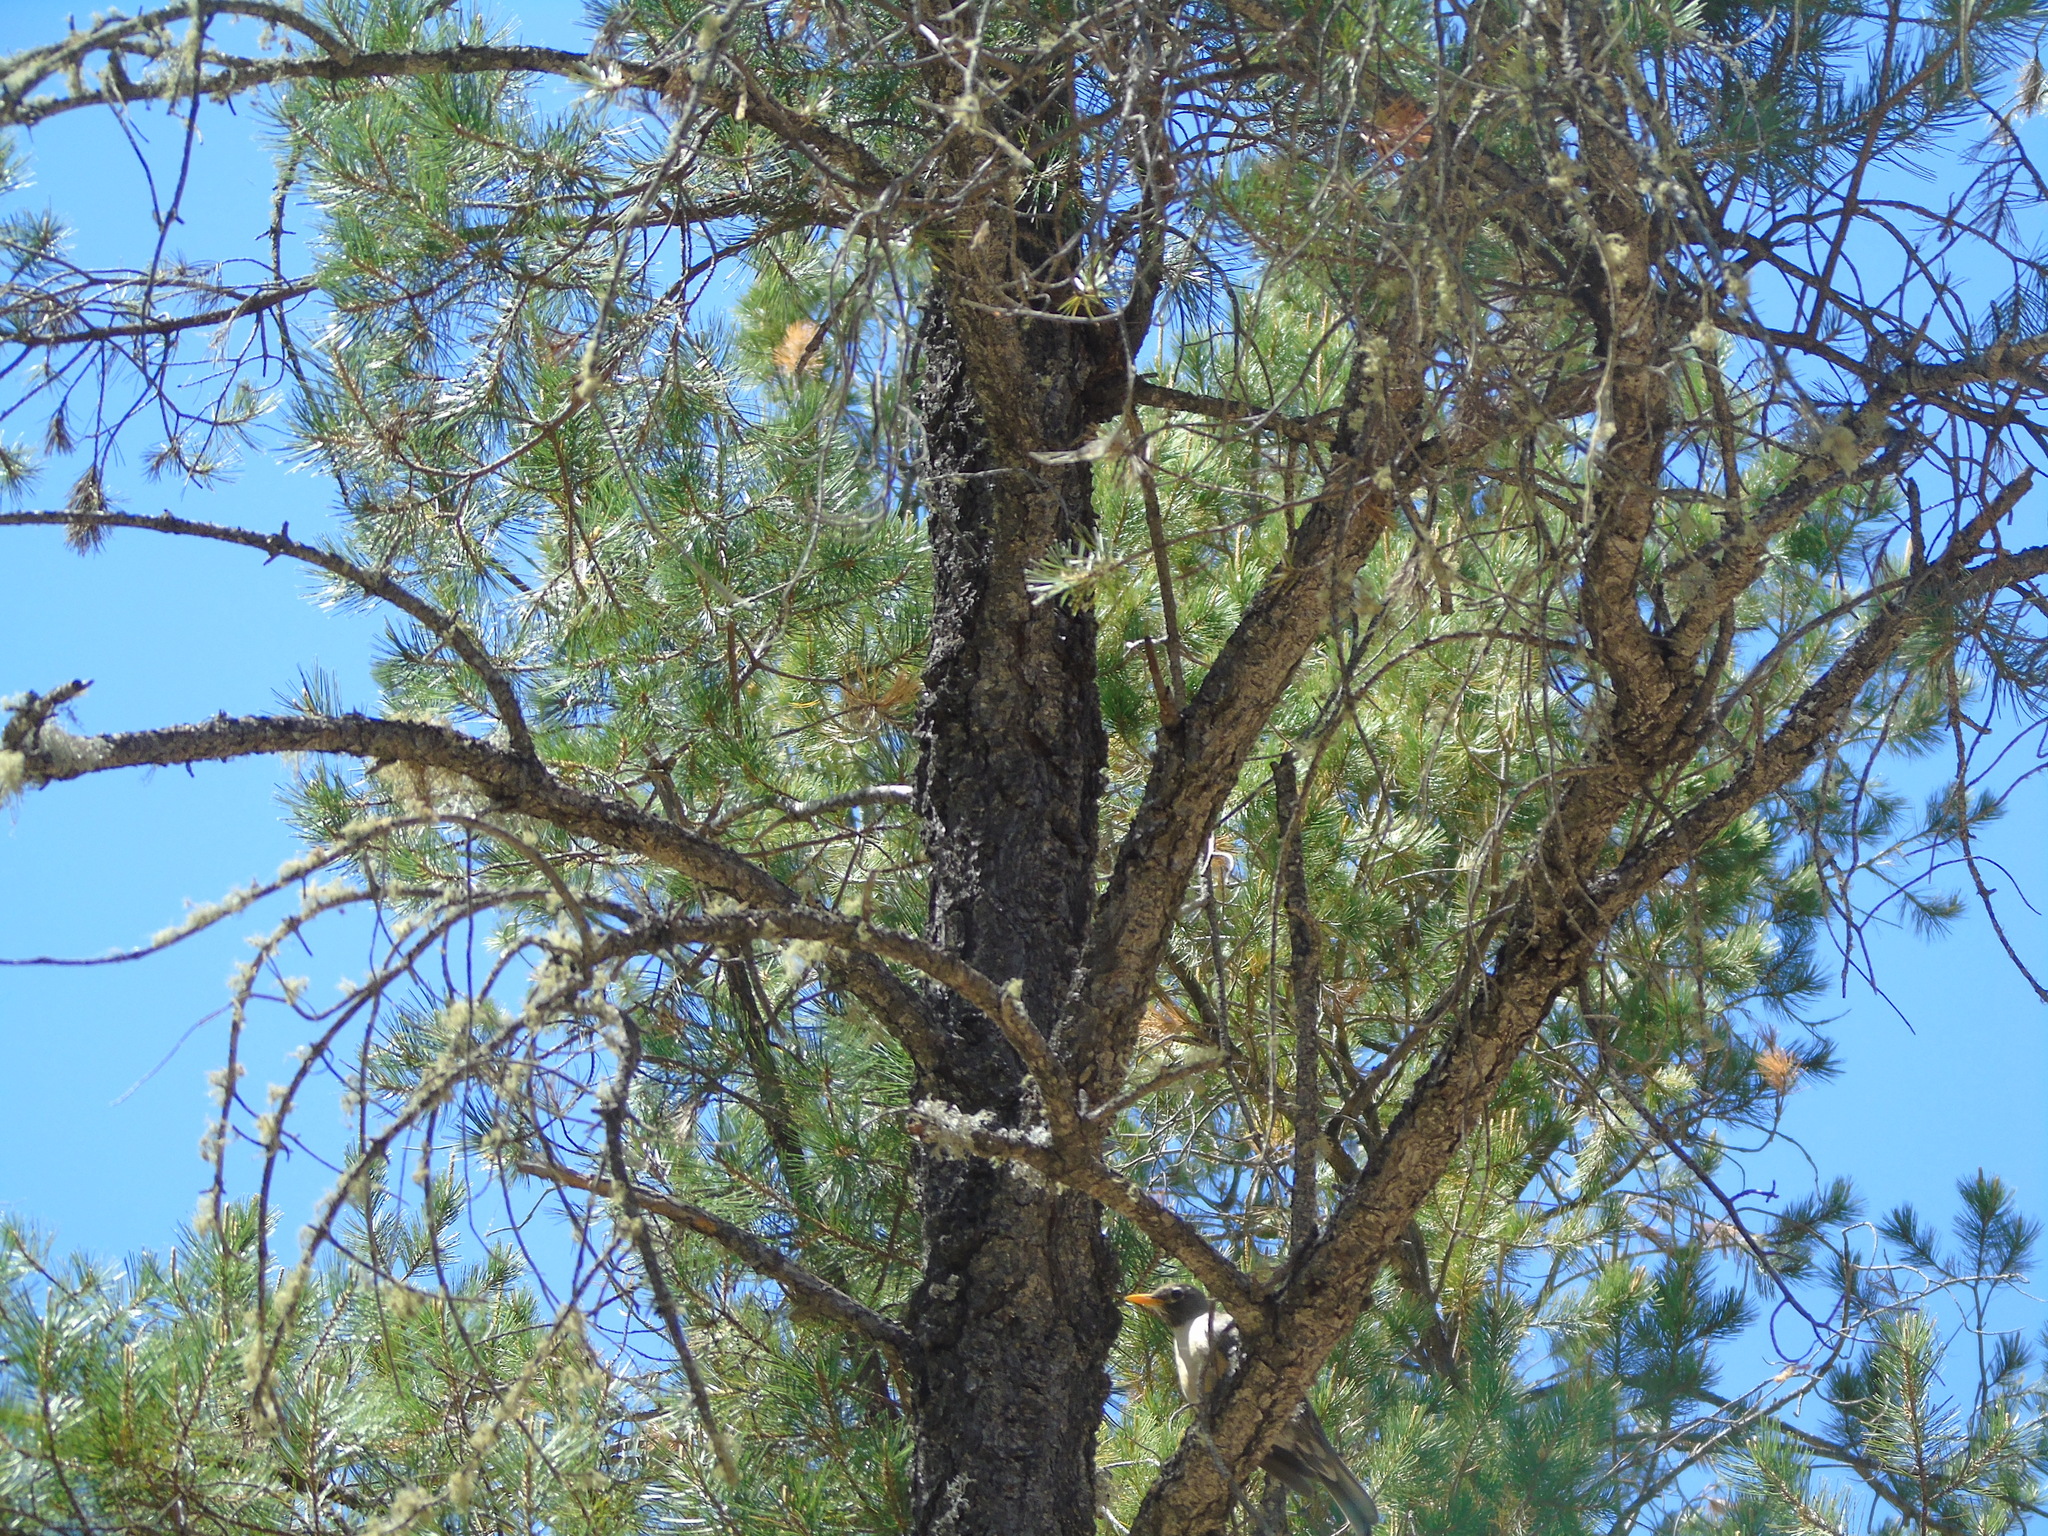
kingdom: Animalia
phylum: Chordata
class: Aves
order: Passeriformes
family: Turdidae
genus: Turdus
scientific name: Turdus migratorius
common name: American robin
